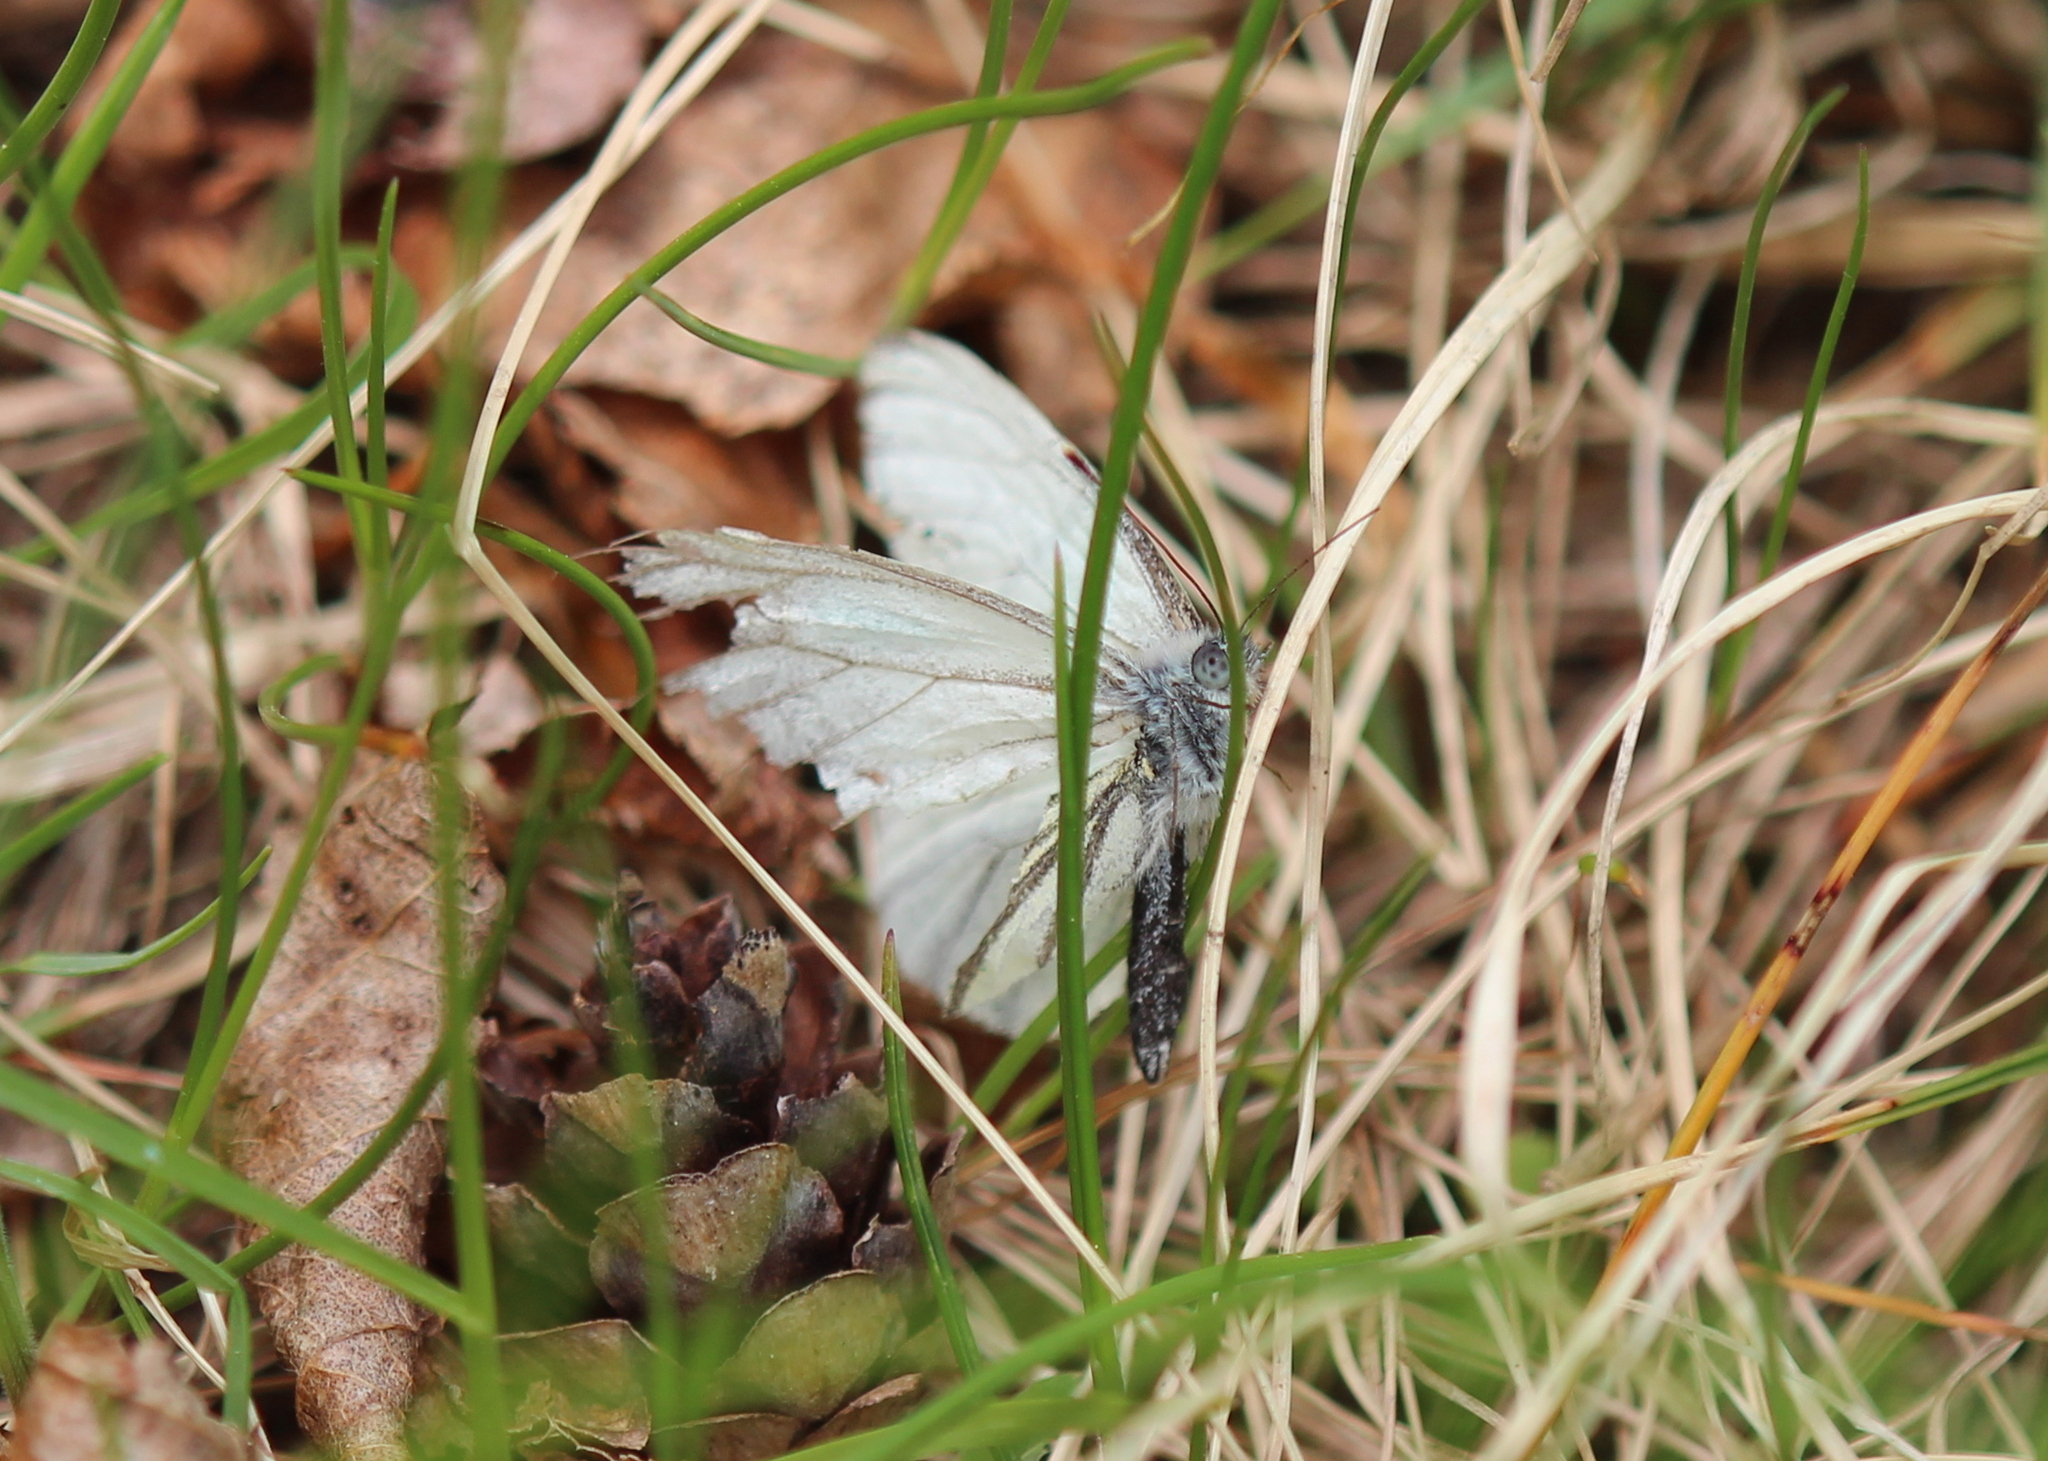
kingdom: Animalia
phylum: Arthropoda
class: Insecta
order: Lepidoptera
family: Pieridae
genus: Pieris
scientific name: Pieris oleracea
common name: Mustard white
